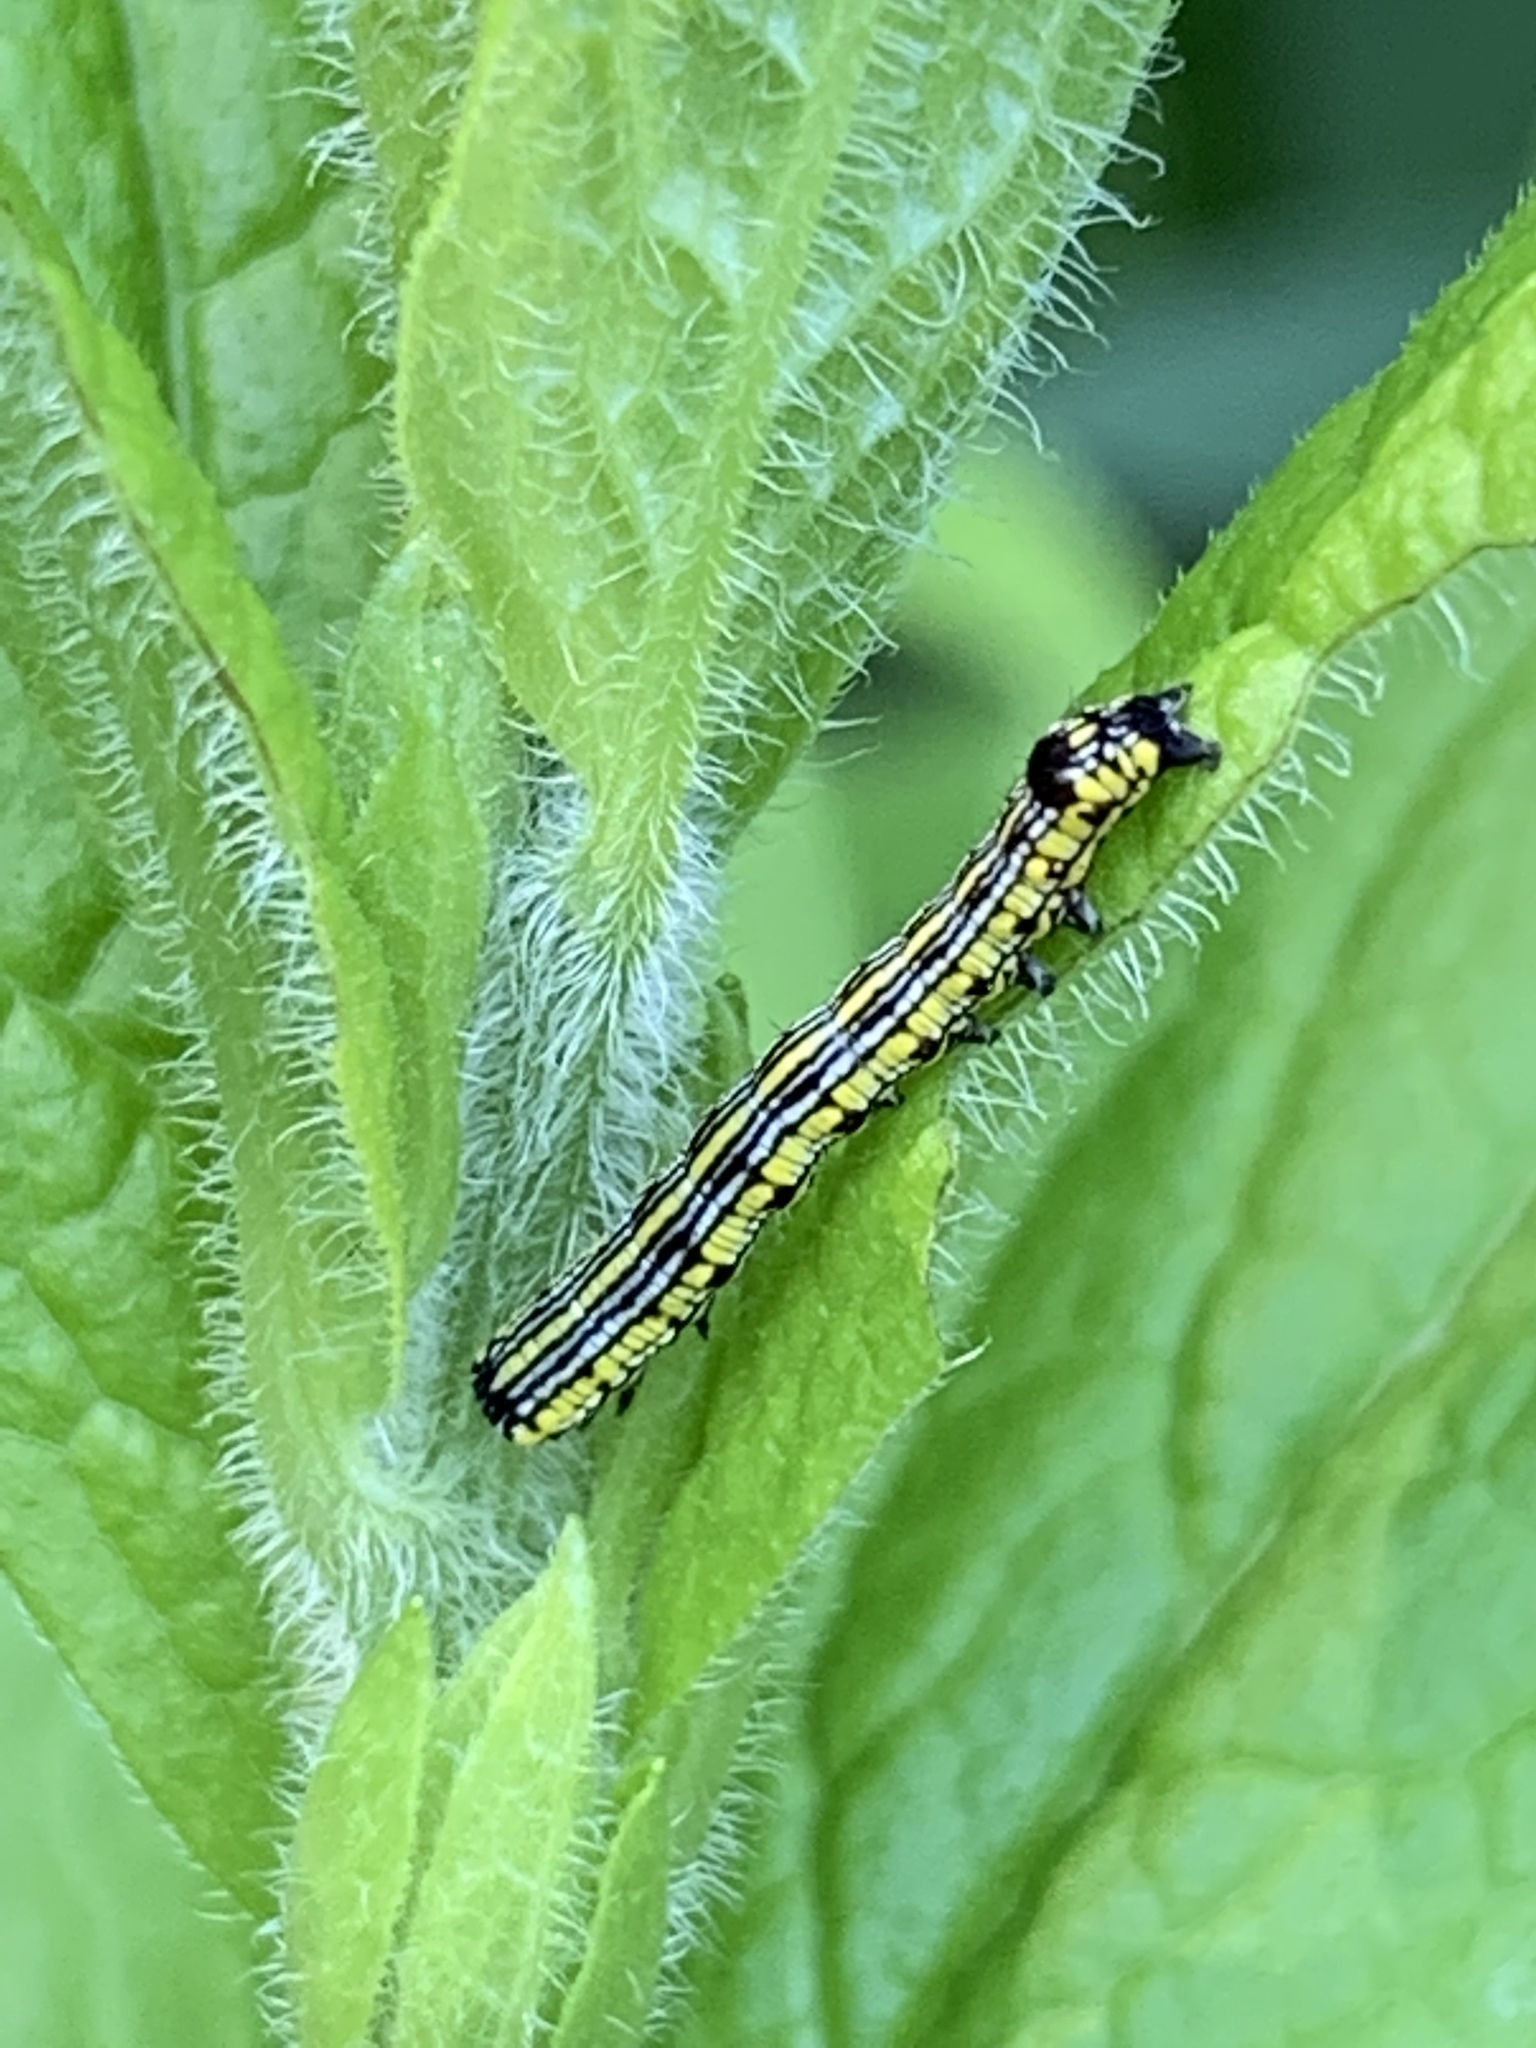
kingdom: Animalia
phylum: Arthropoda
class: Insecta
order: Lepidoptera
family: Noctuidae
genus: Cucullia
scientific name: Cucullia convexipennis
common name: Brown-hooded owlet
